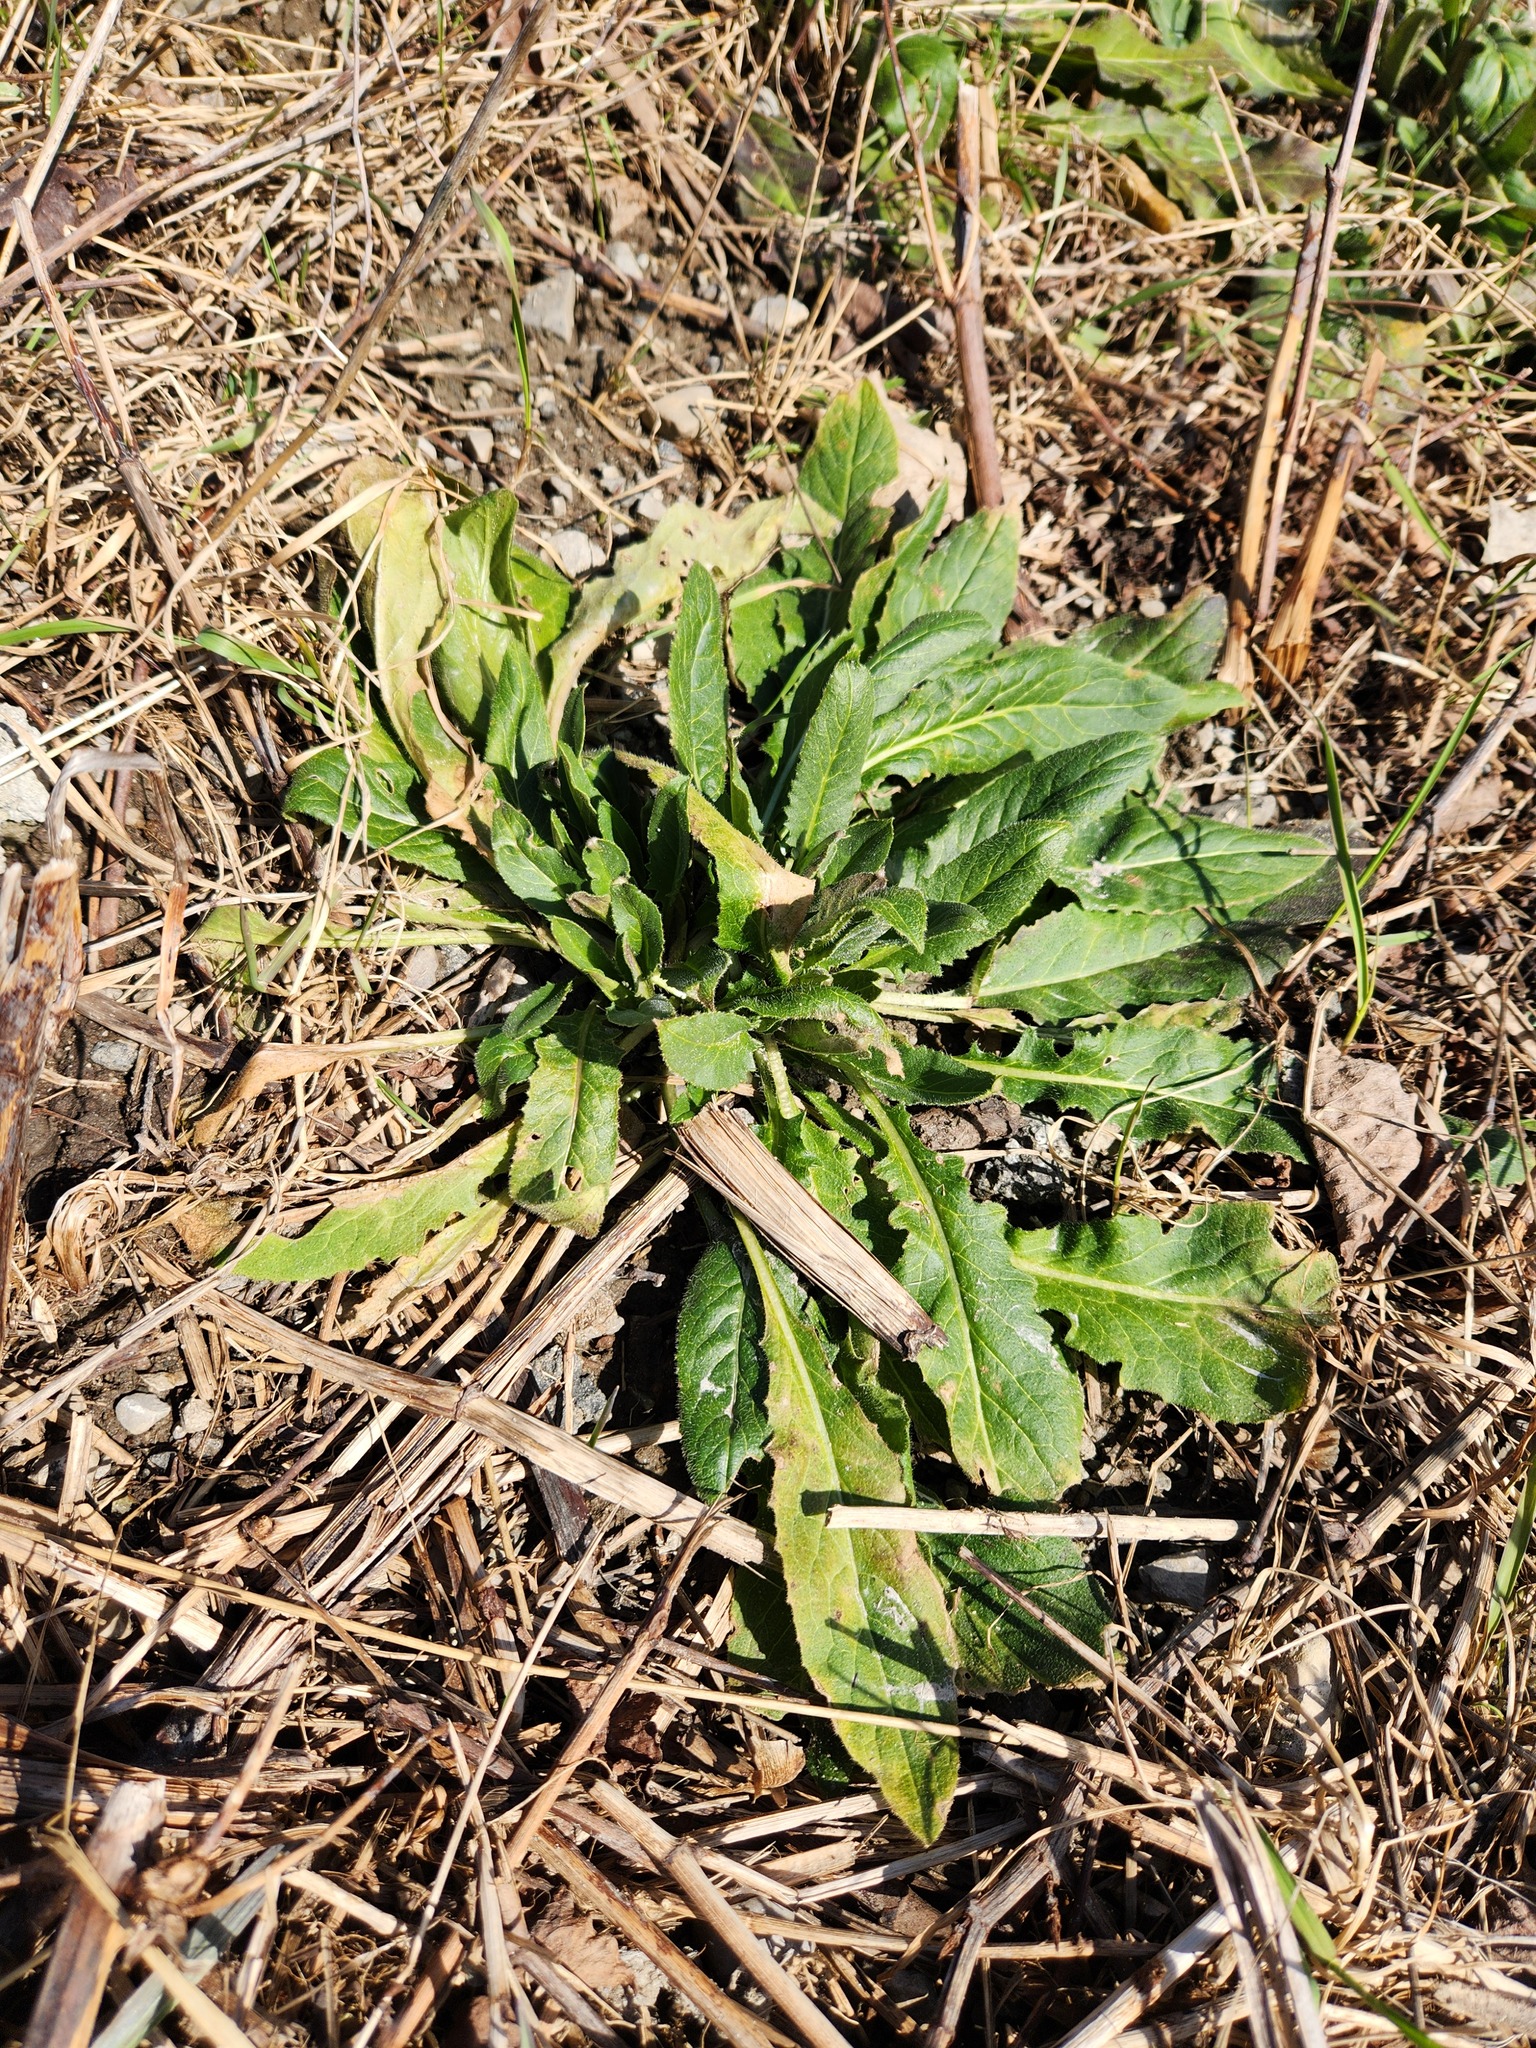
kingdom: Plantae
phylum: Tracheophyta
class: Magnoliopsida
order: Brassicales
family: Brassicaceae
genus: Hesperis
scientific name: Hesperis matronalis
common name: Dame's-violet
